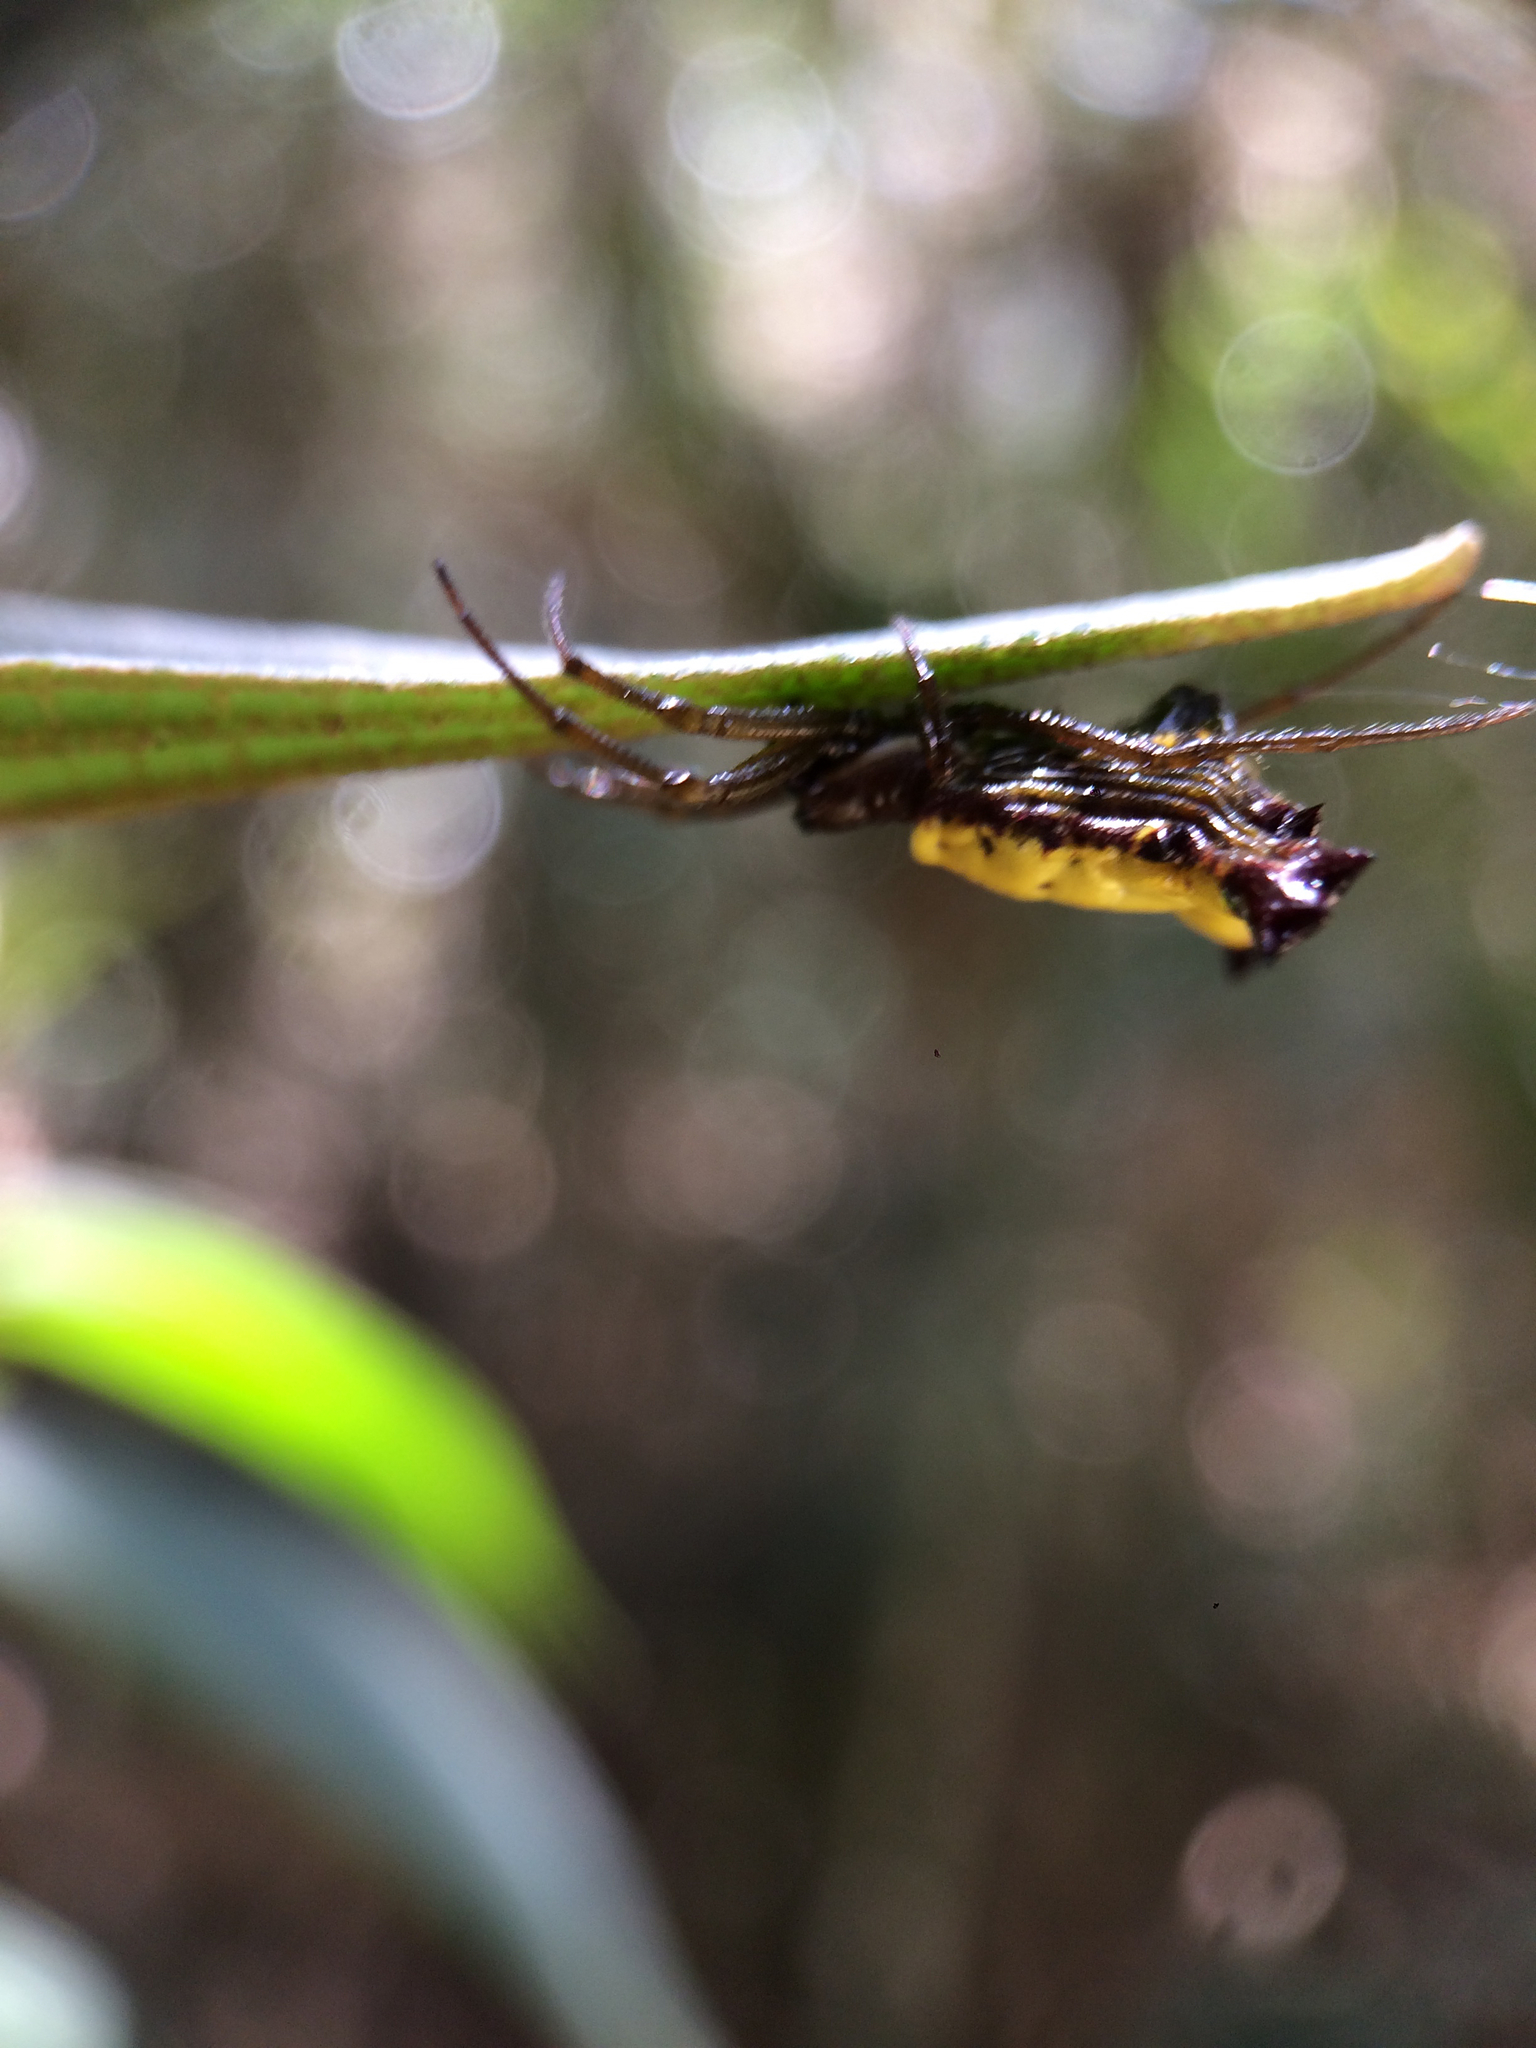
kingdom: Animalia
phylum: Arthropoda
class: Arachnida
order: Araneae
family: Araneidae
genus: Micrathena
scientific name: Micrathena digitata
